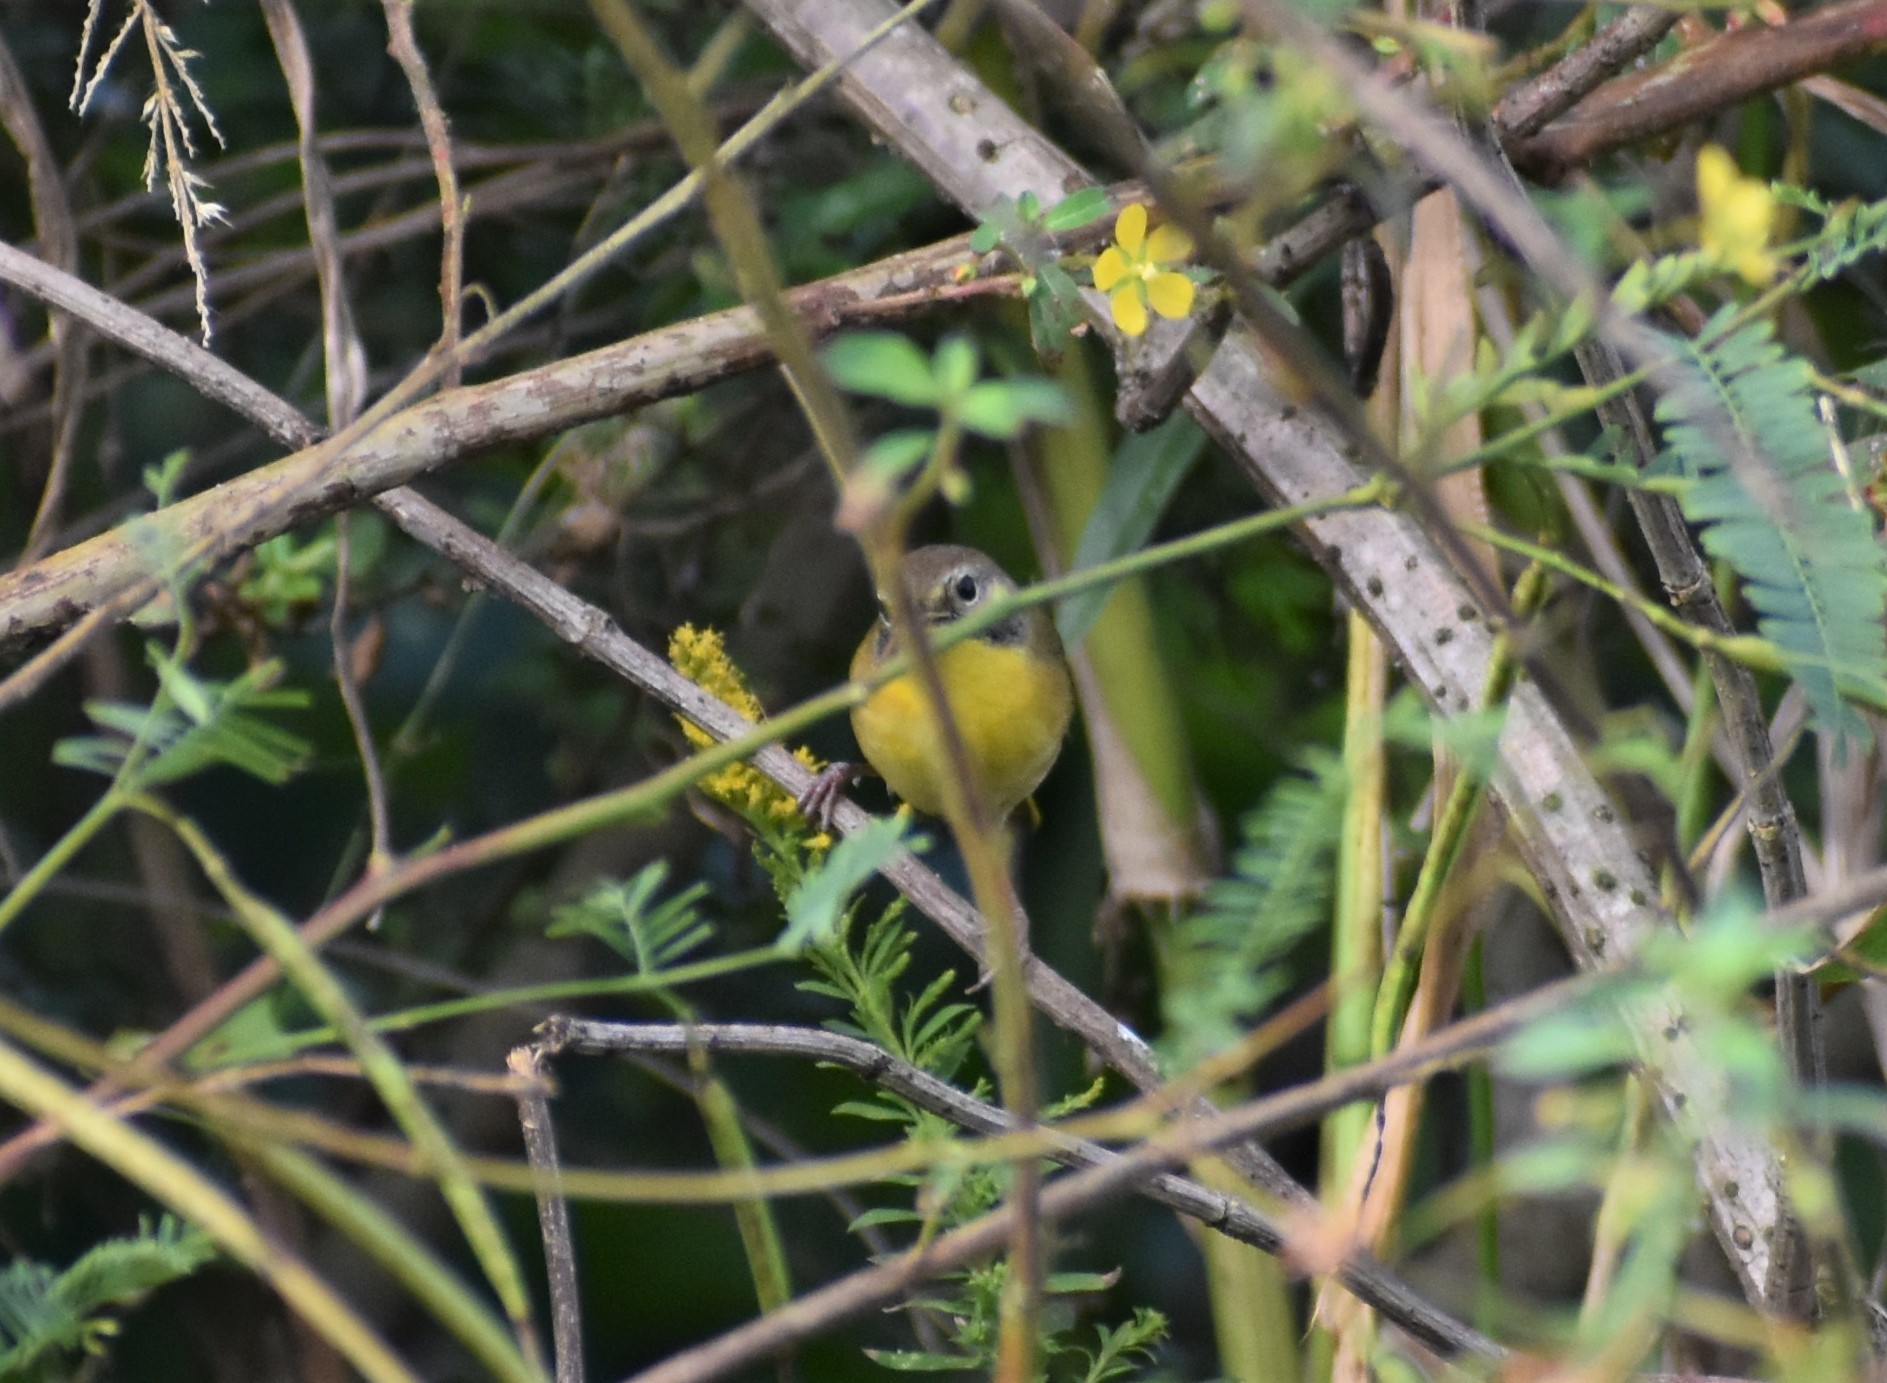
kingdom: Animalia
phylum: Chordata
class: Aves
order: Passeriformes
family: Parulidae
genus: Geothlypis
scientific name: Geothlypis trichas
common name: Common yellowthroat
